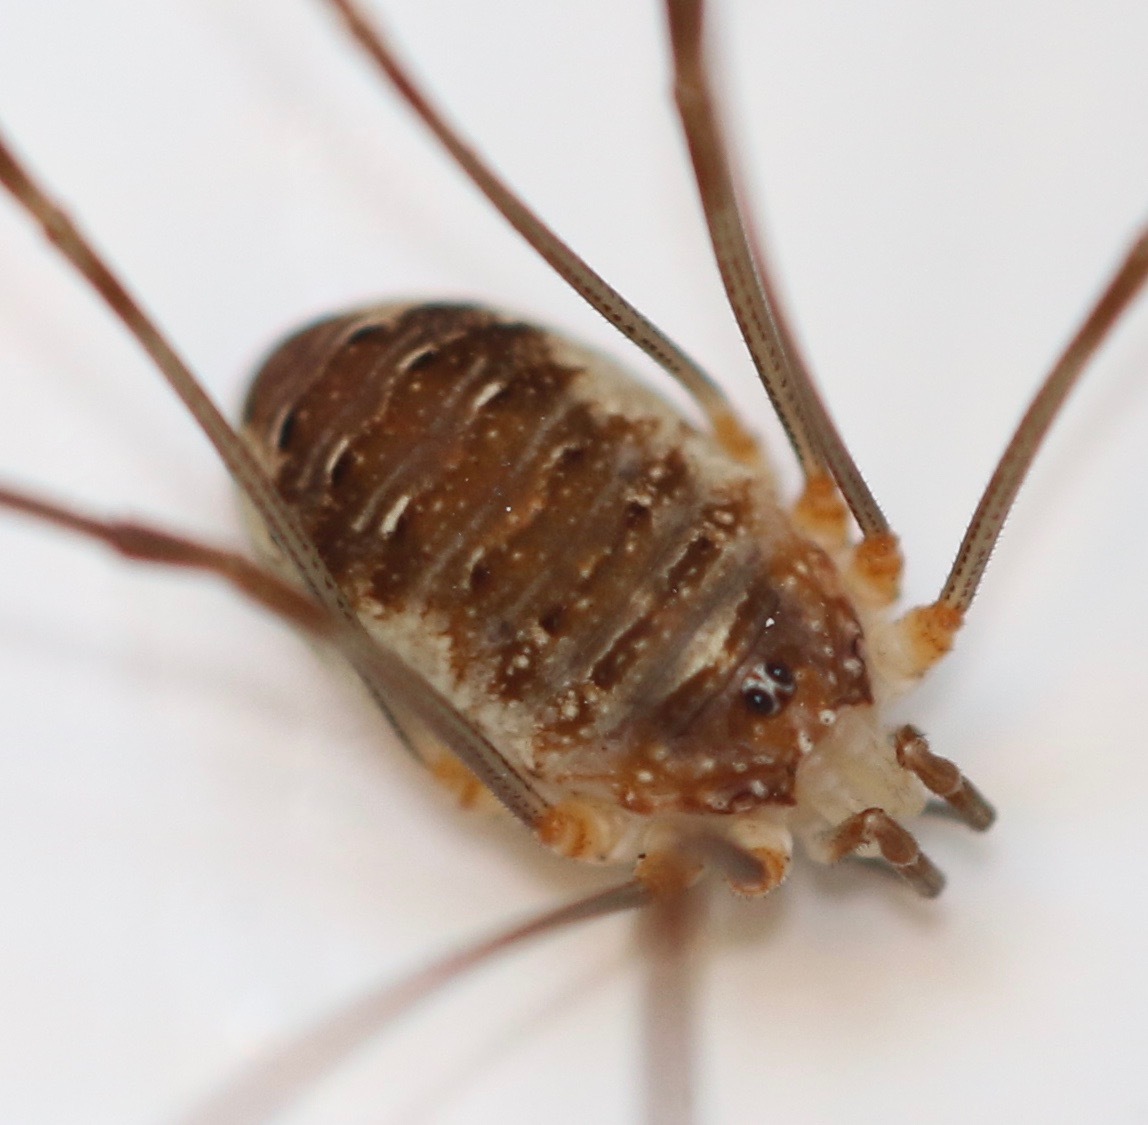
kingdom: Animalia
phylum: Arthropoda
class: Arachnida
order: Opiliones
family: Phalangiidae
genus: Opilio
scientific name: Opilio canestrinii
